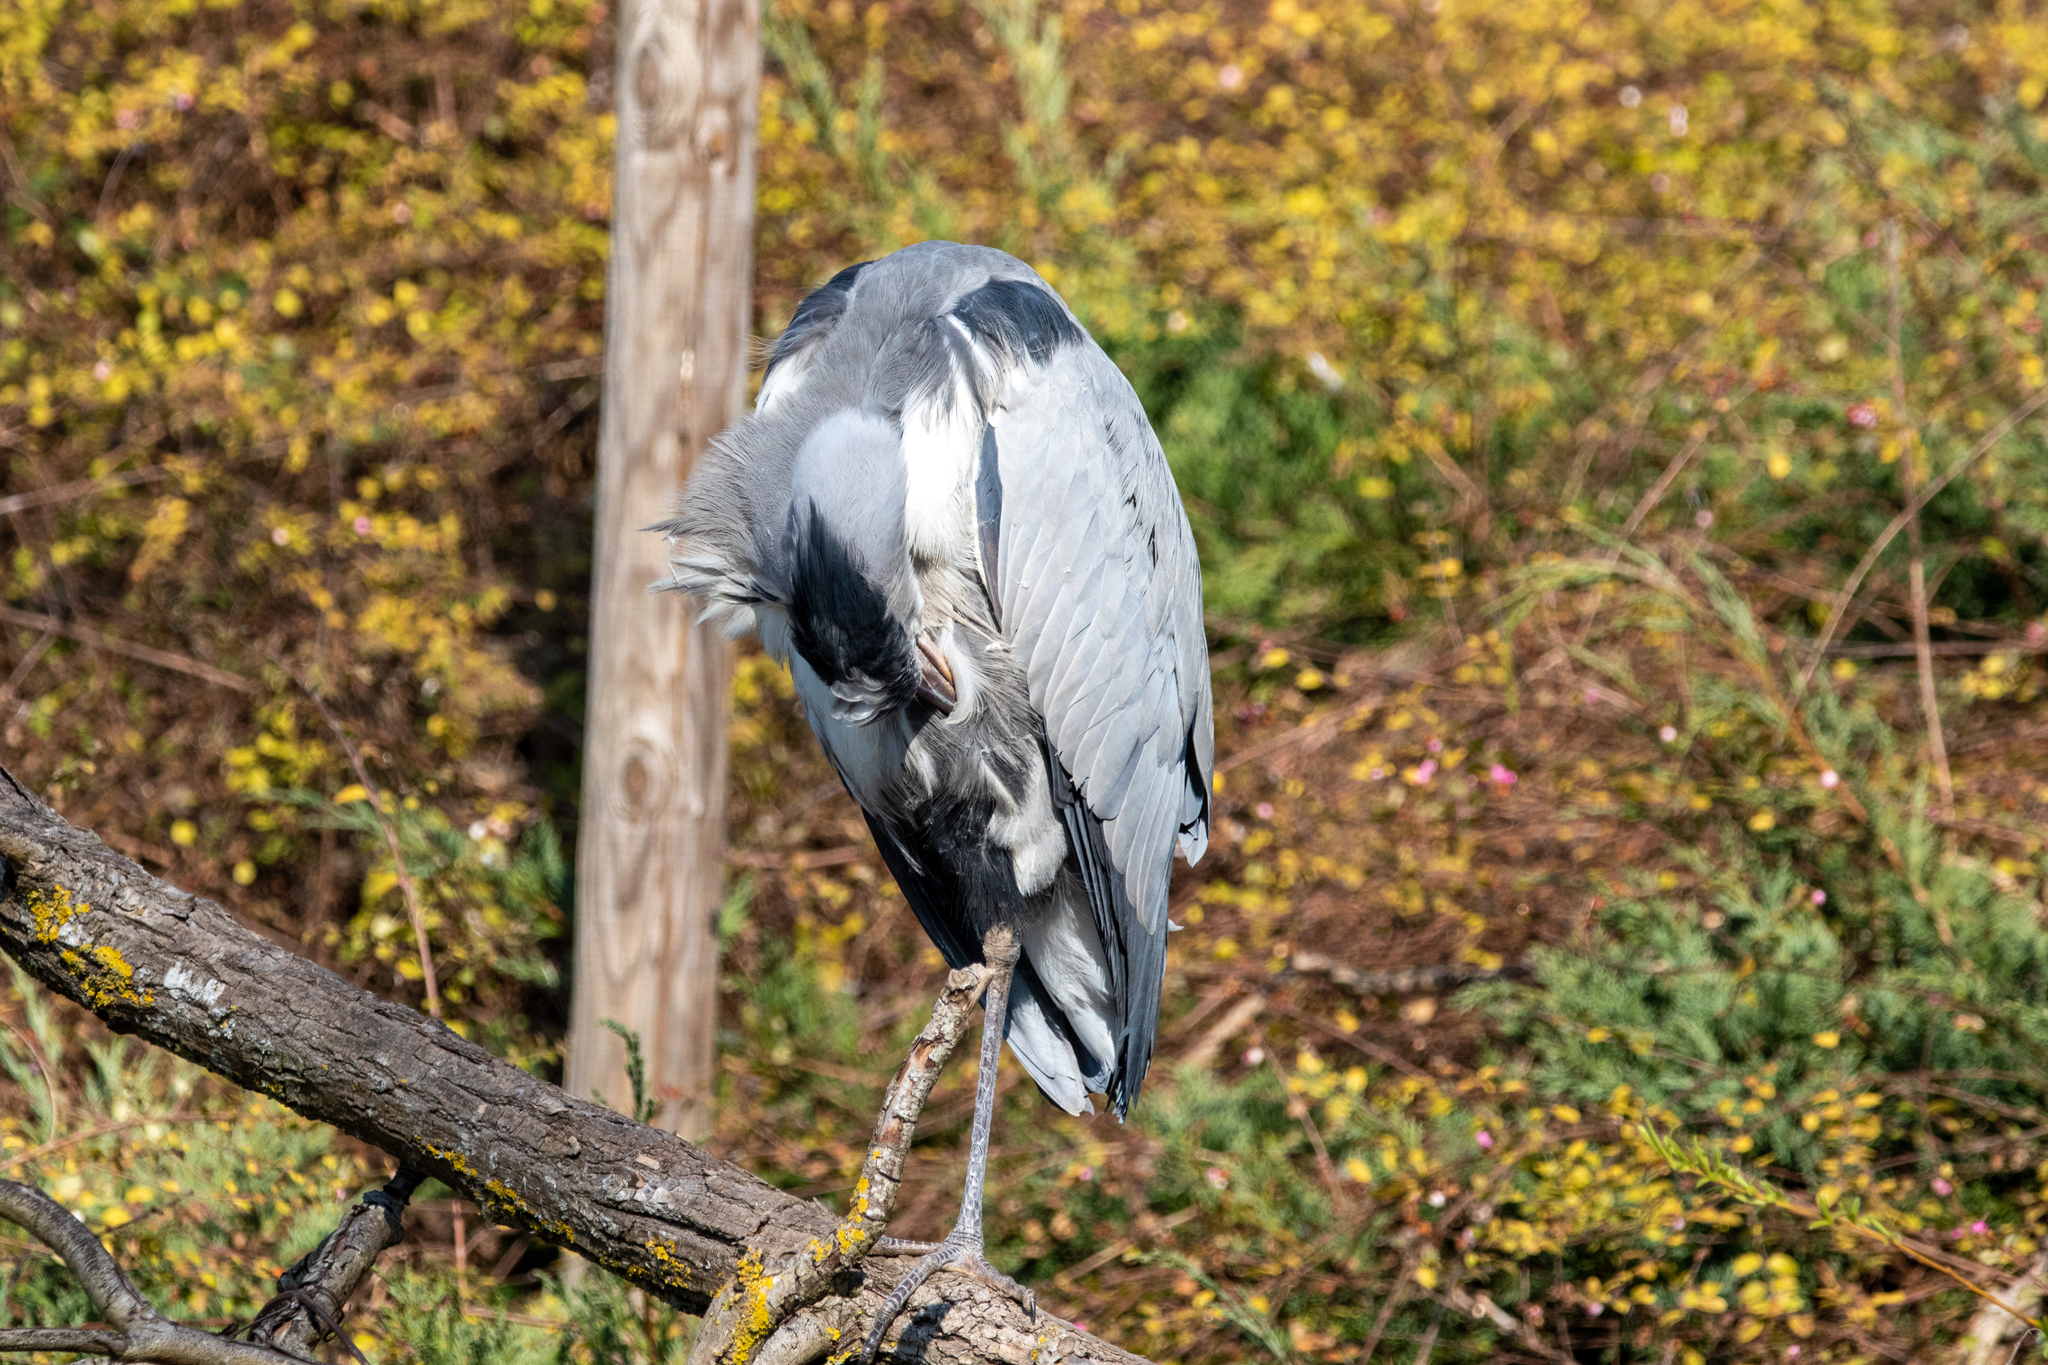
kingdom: Animalia
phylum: Chordata
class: Aves
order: Pelecaniformes
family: Ardeidae
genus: Ardea
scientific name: Ardea cinerea
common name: Grey heron
